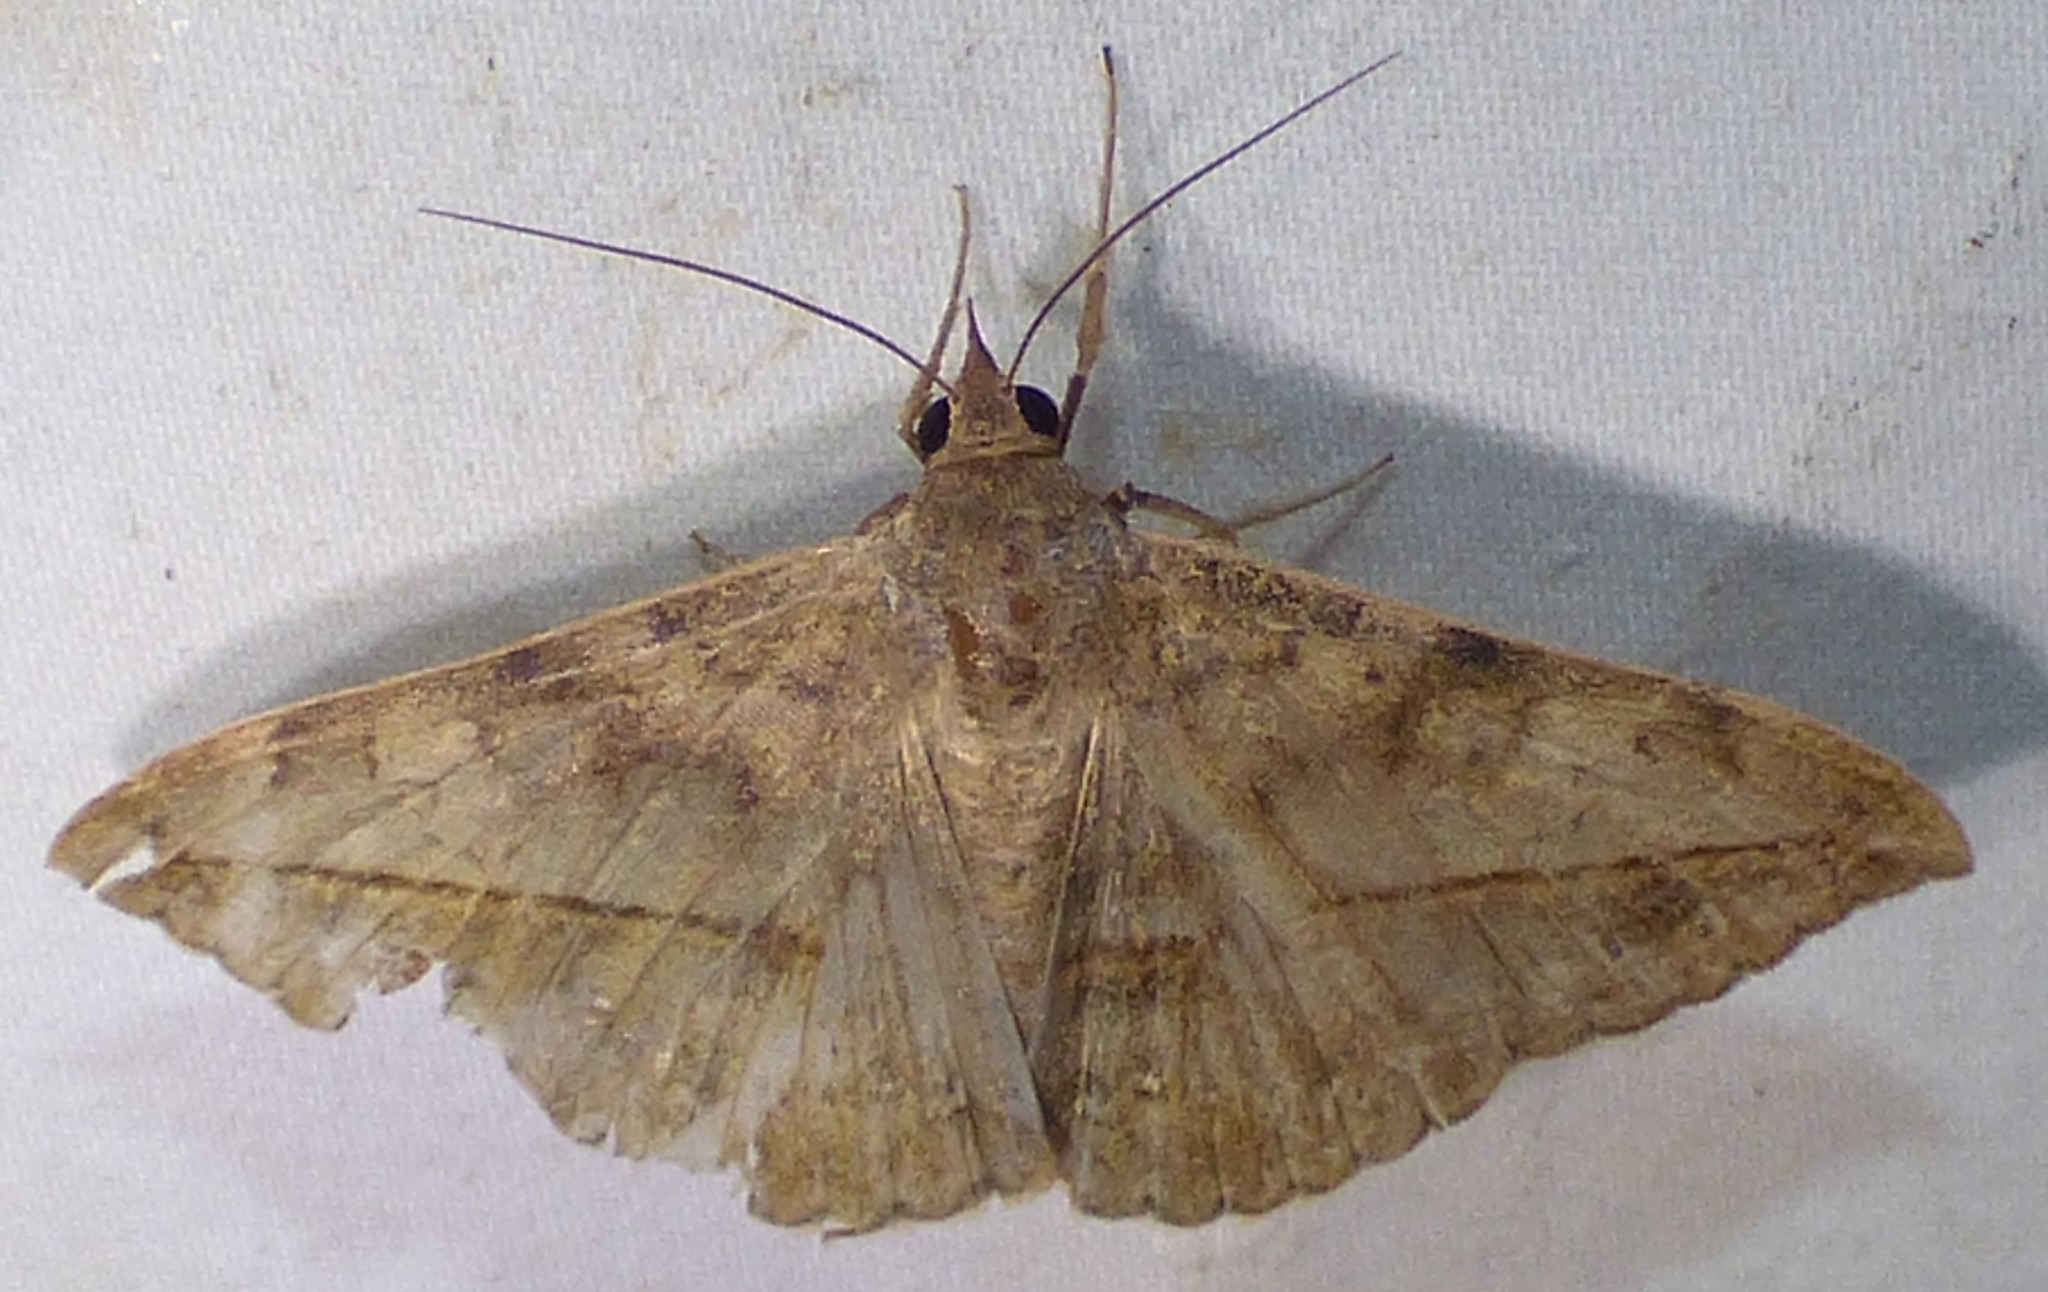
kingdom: Animalia
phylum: Arthropoda
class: Insecta
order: Lepidoptera
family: Erebidae
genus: Anticarsia
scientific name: Anticarsia gemmatalis
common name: Cutworm moth
